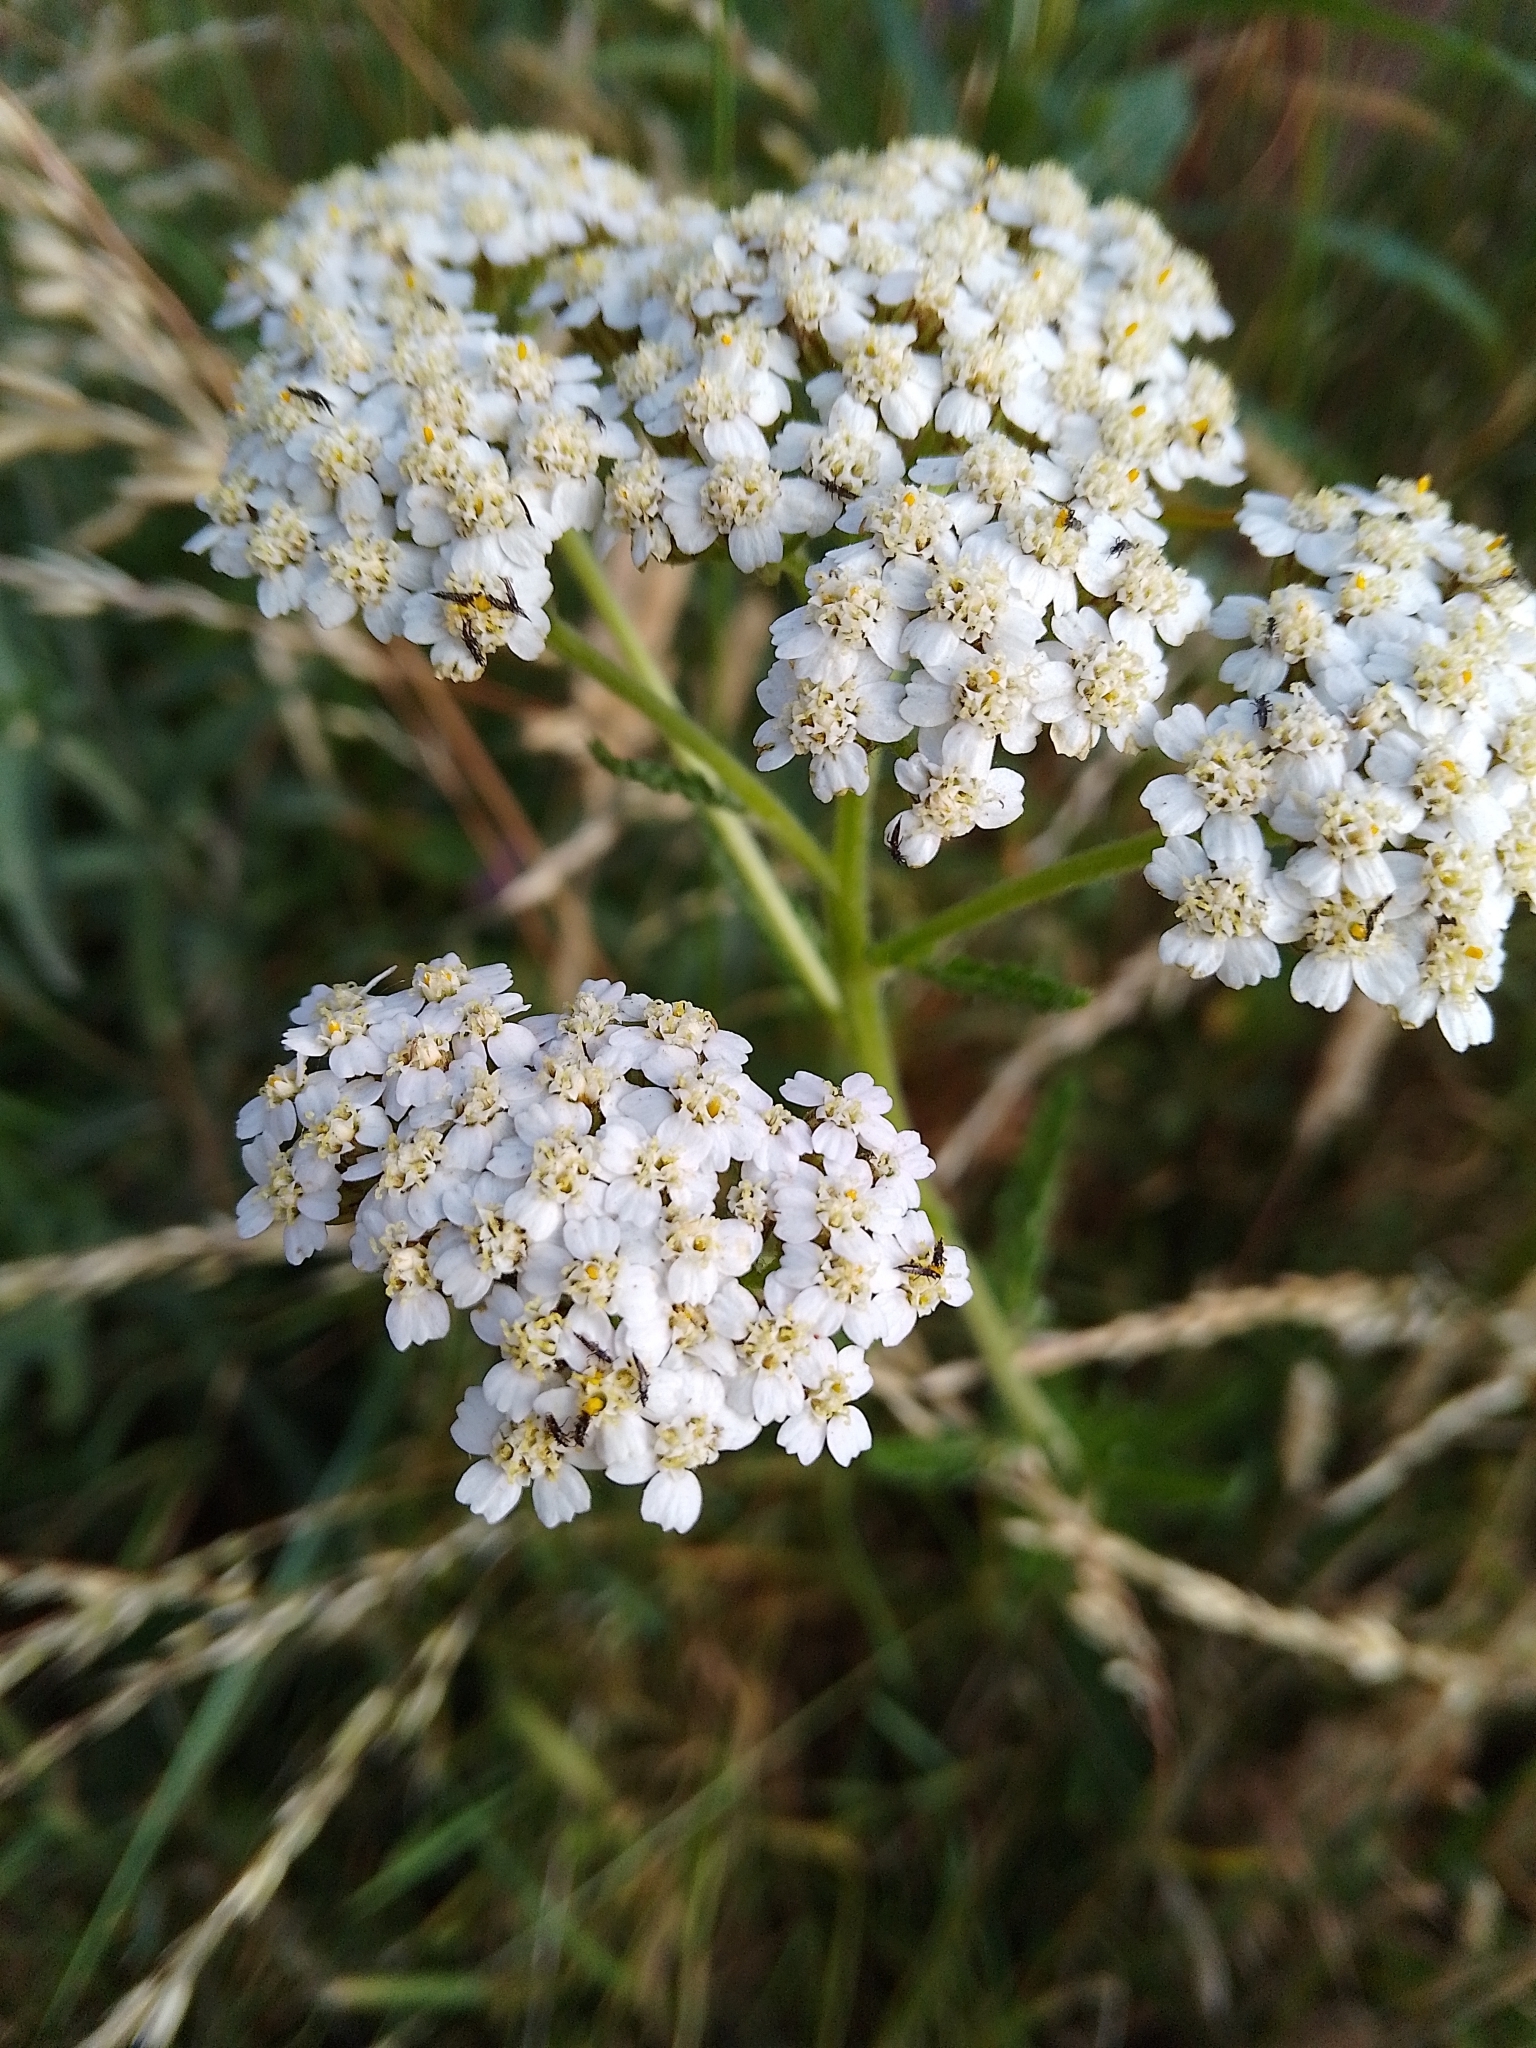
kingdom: Plantae
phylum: Tracheophyta
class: Magnoliopsida
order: Asterales
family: Asteraceae
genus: Achillea
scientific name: Achillea millefolium
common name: Yarrow
